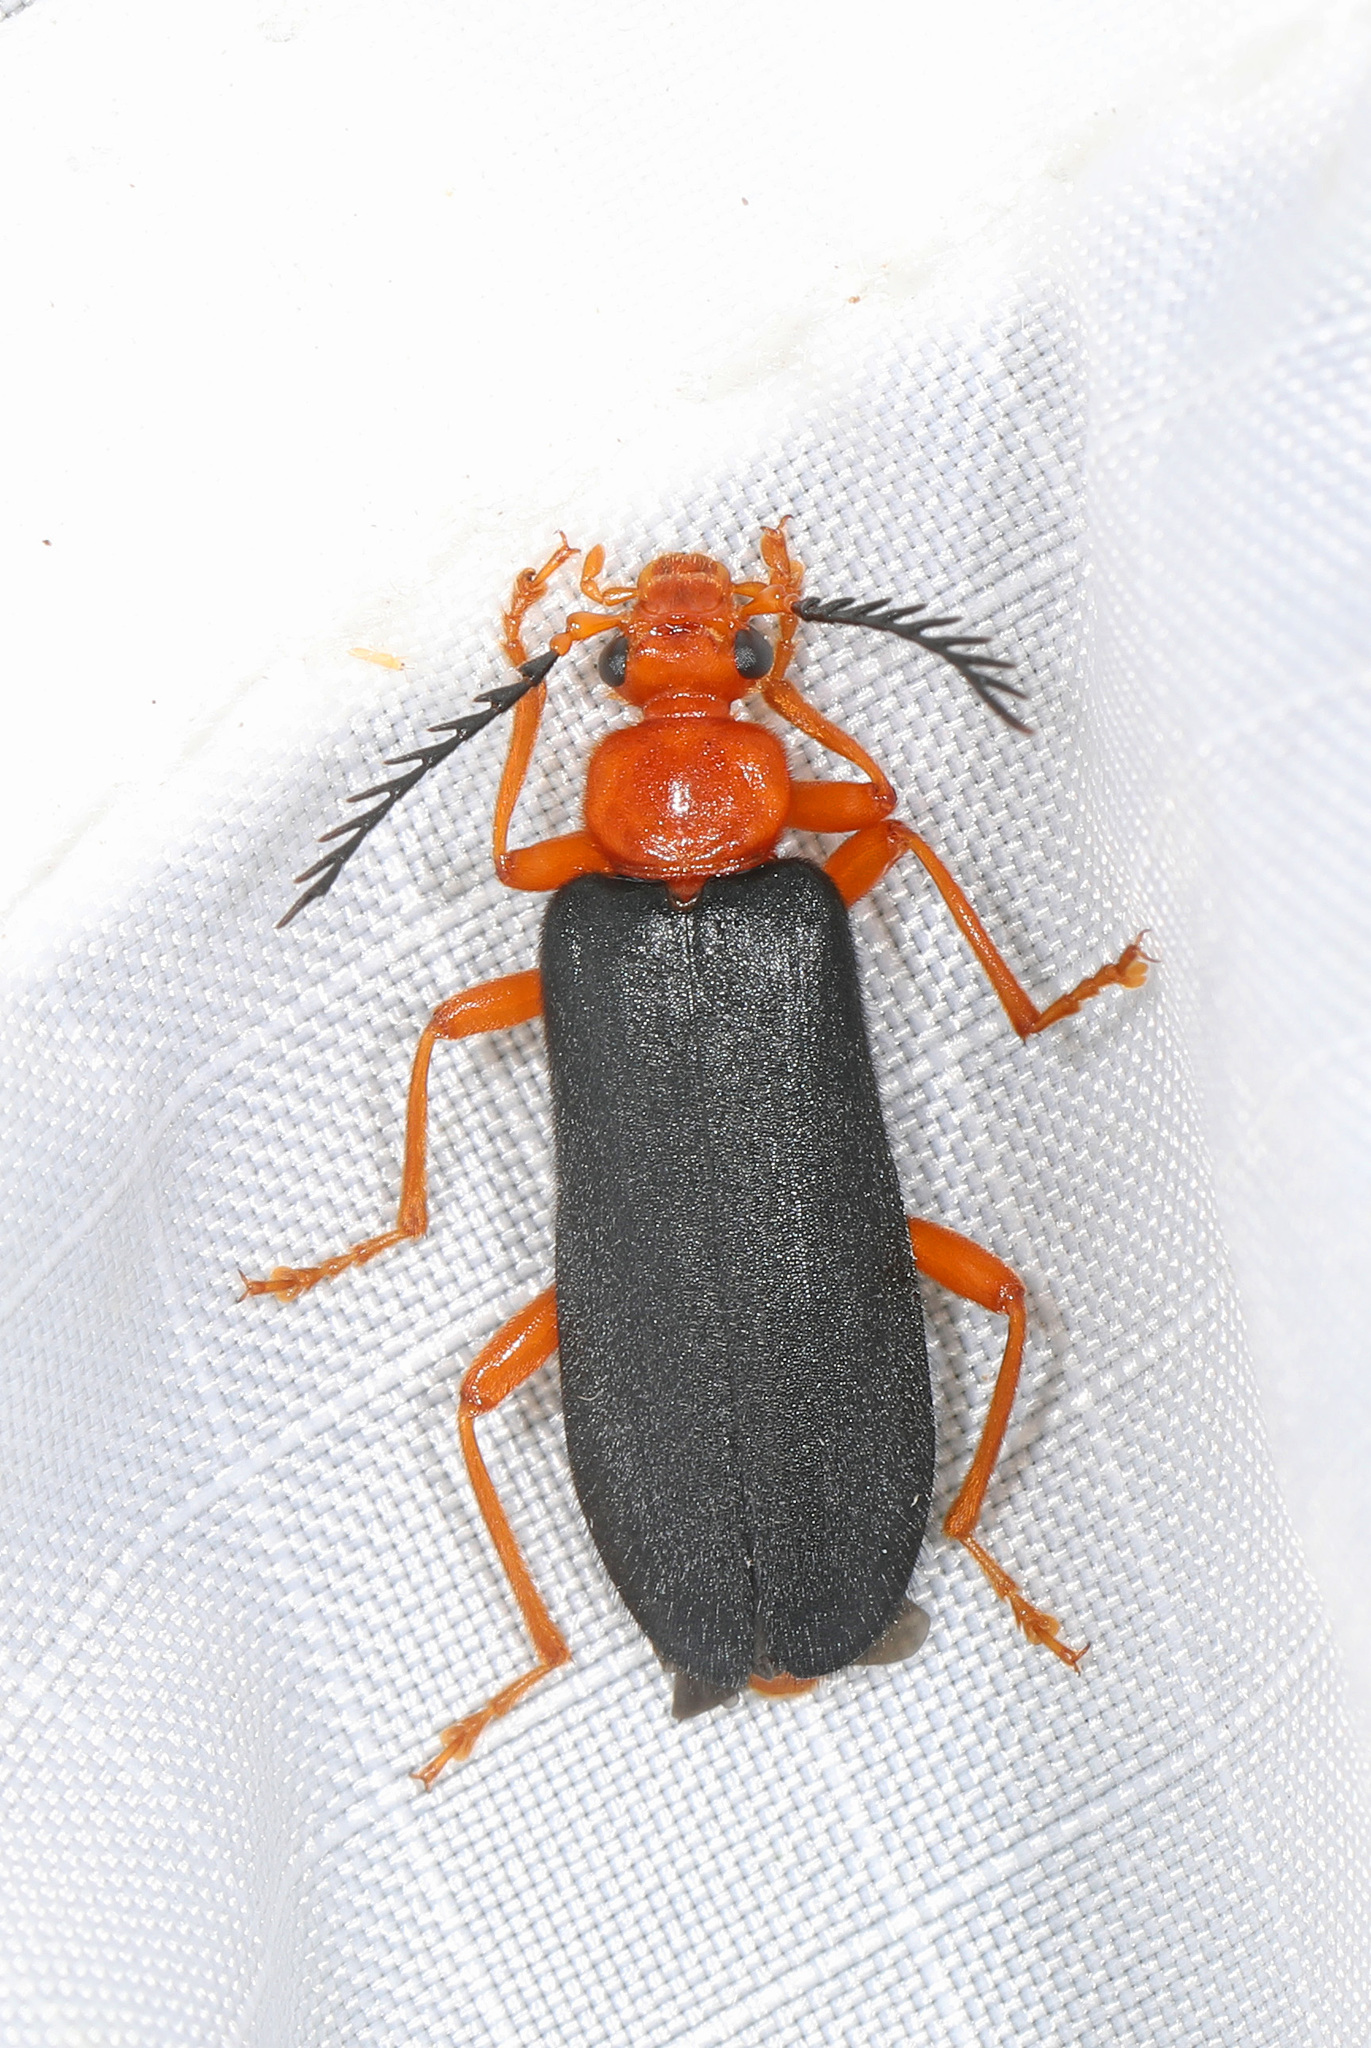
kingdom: Animalia
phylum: Arthropoda
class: Insecta
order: Coleoptera
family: Pyrochroidae
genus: Neopyrochroa
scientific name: Neopyrochroa flabellata
